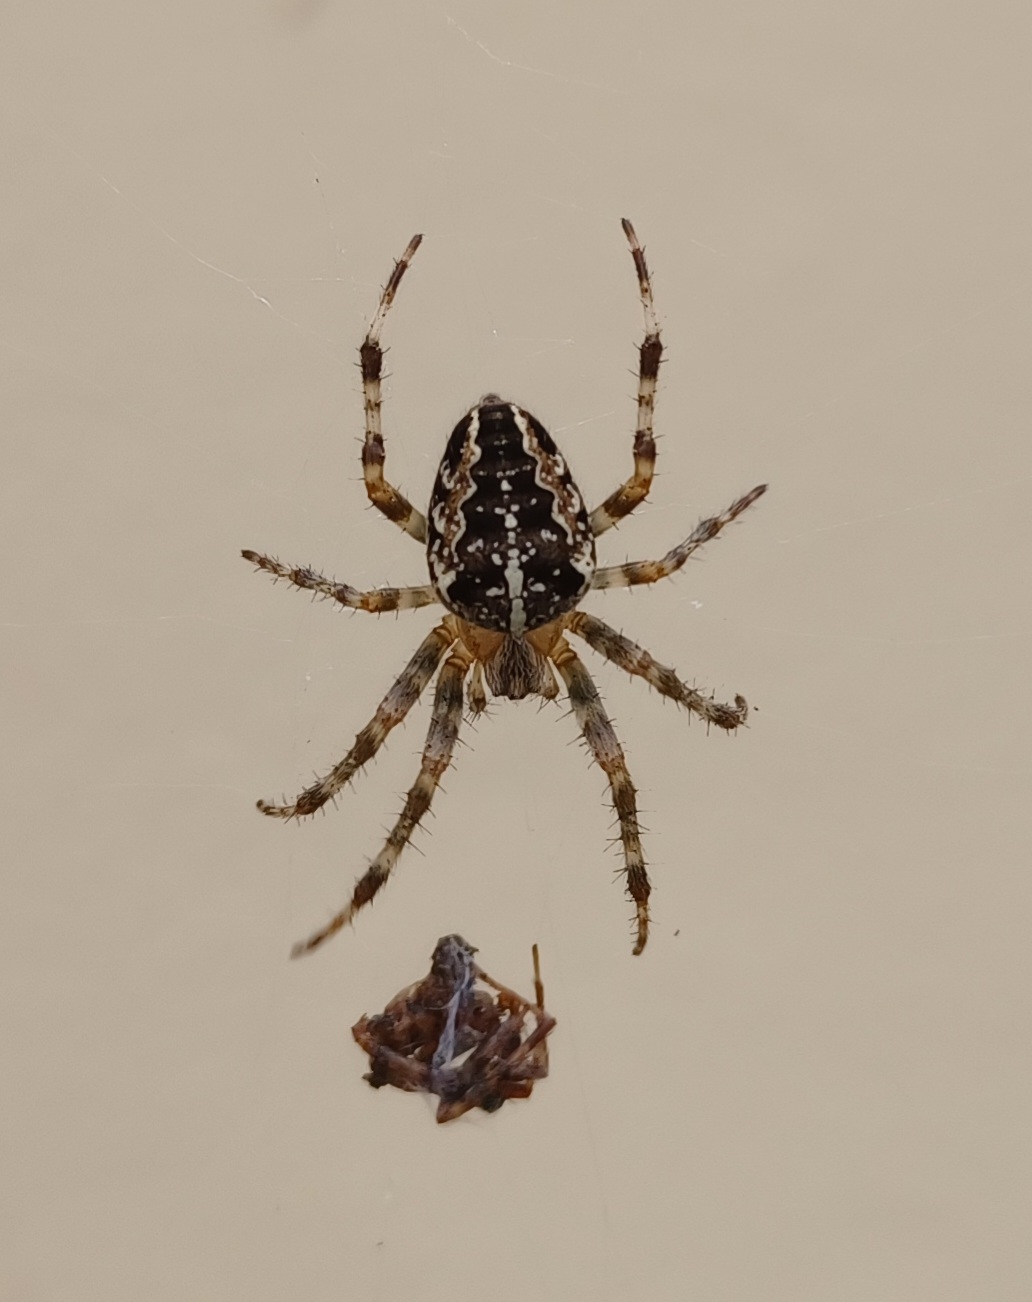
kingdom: Animalia
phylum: Arthropoda
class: Arachnida
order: Araneae
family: Araneidae
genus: Araneus
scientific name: Araneus diadematus
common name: Cross orbweaver
